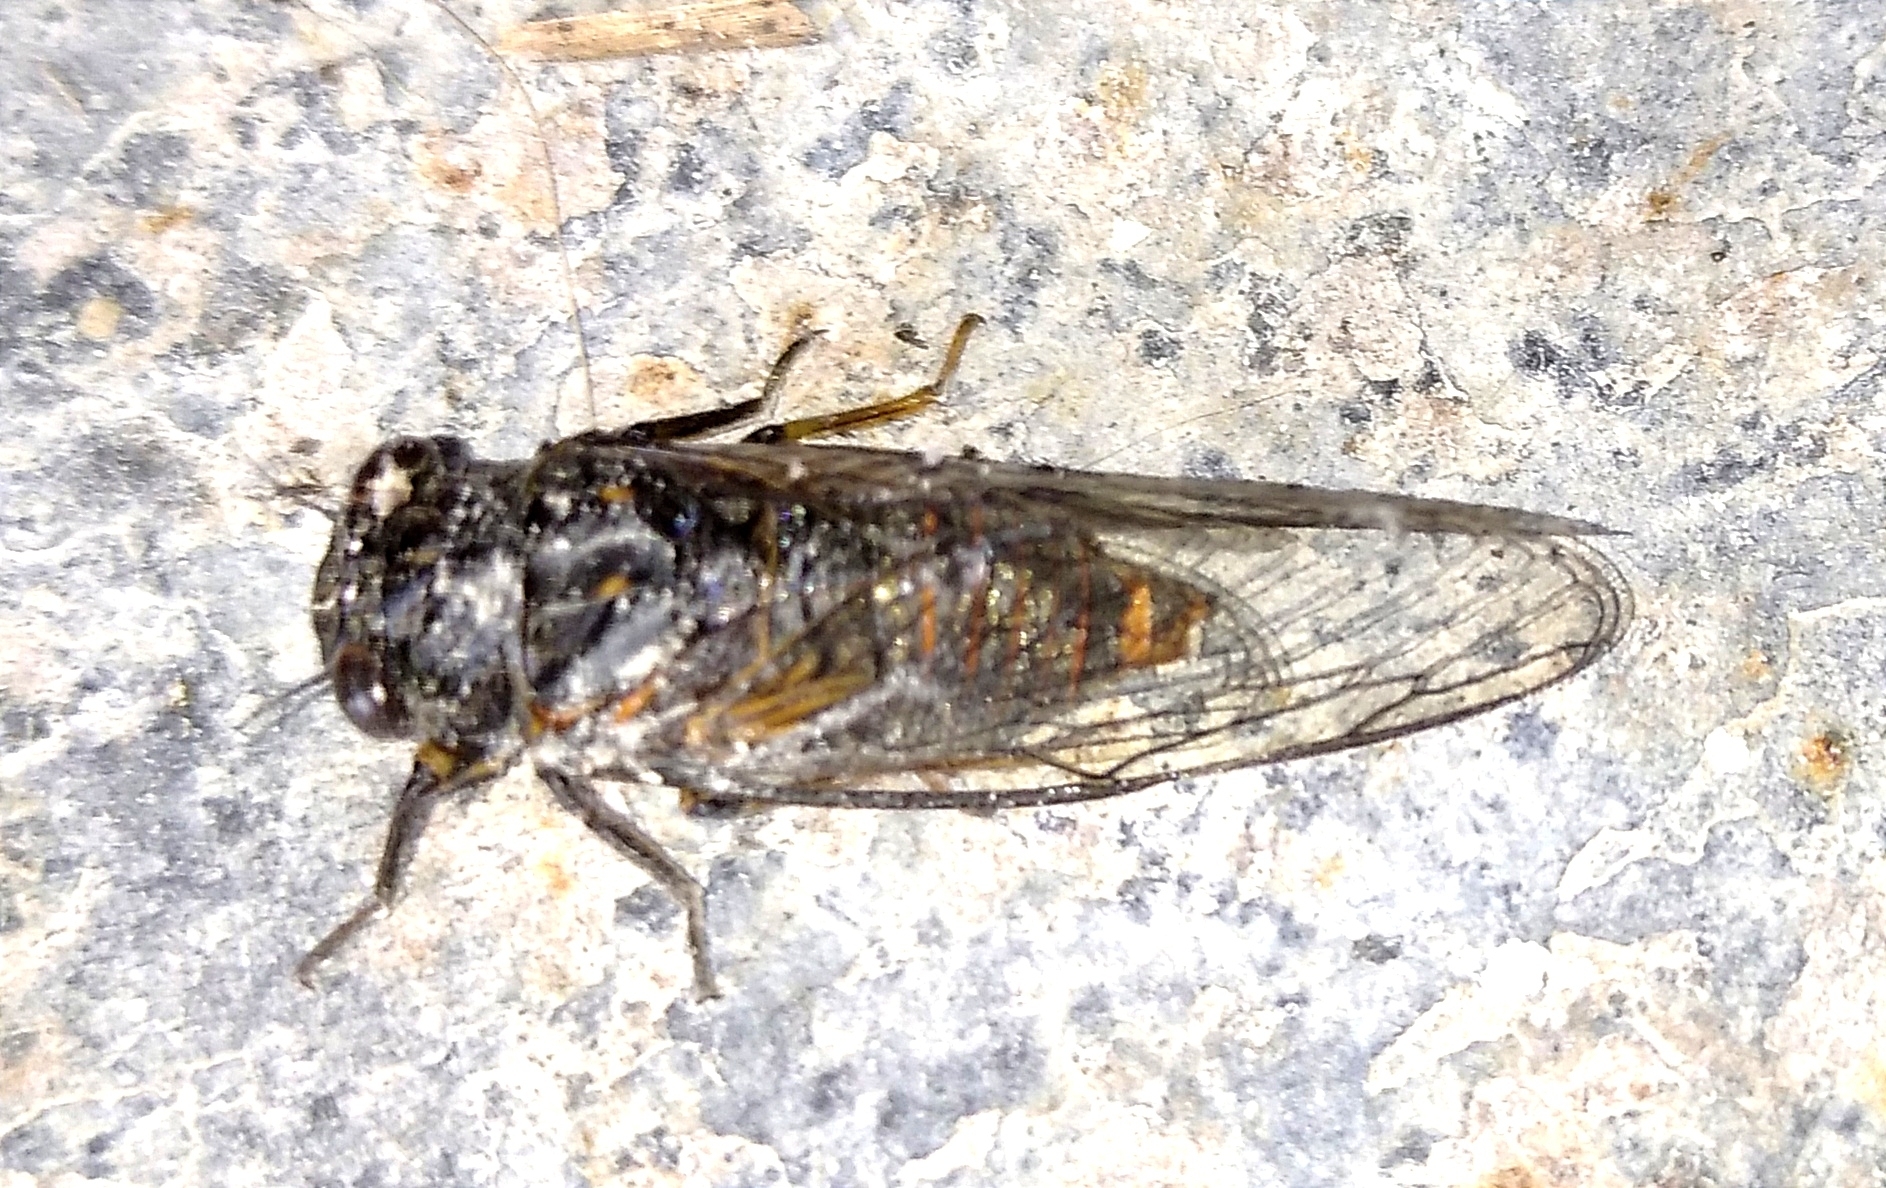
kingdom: Animalia
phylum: Arthropoda
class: Insecta
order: Hemiptera
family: Cicadidae
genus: Dimissalna
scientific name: Dimissalna dimissa
